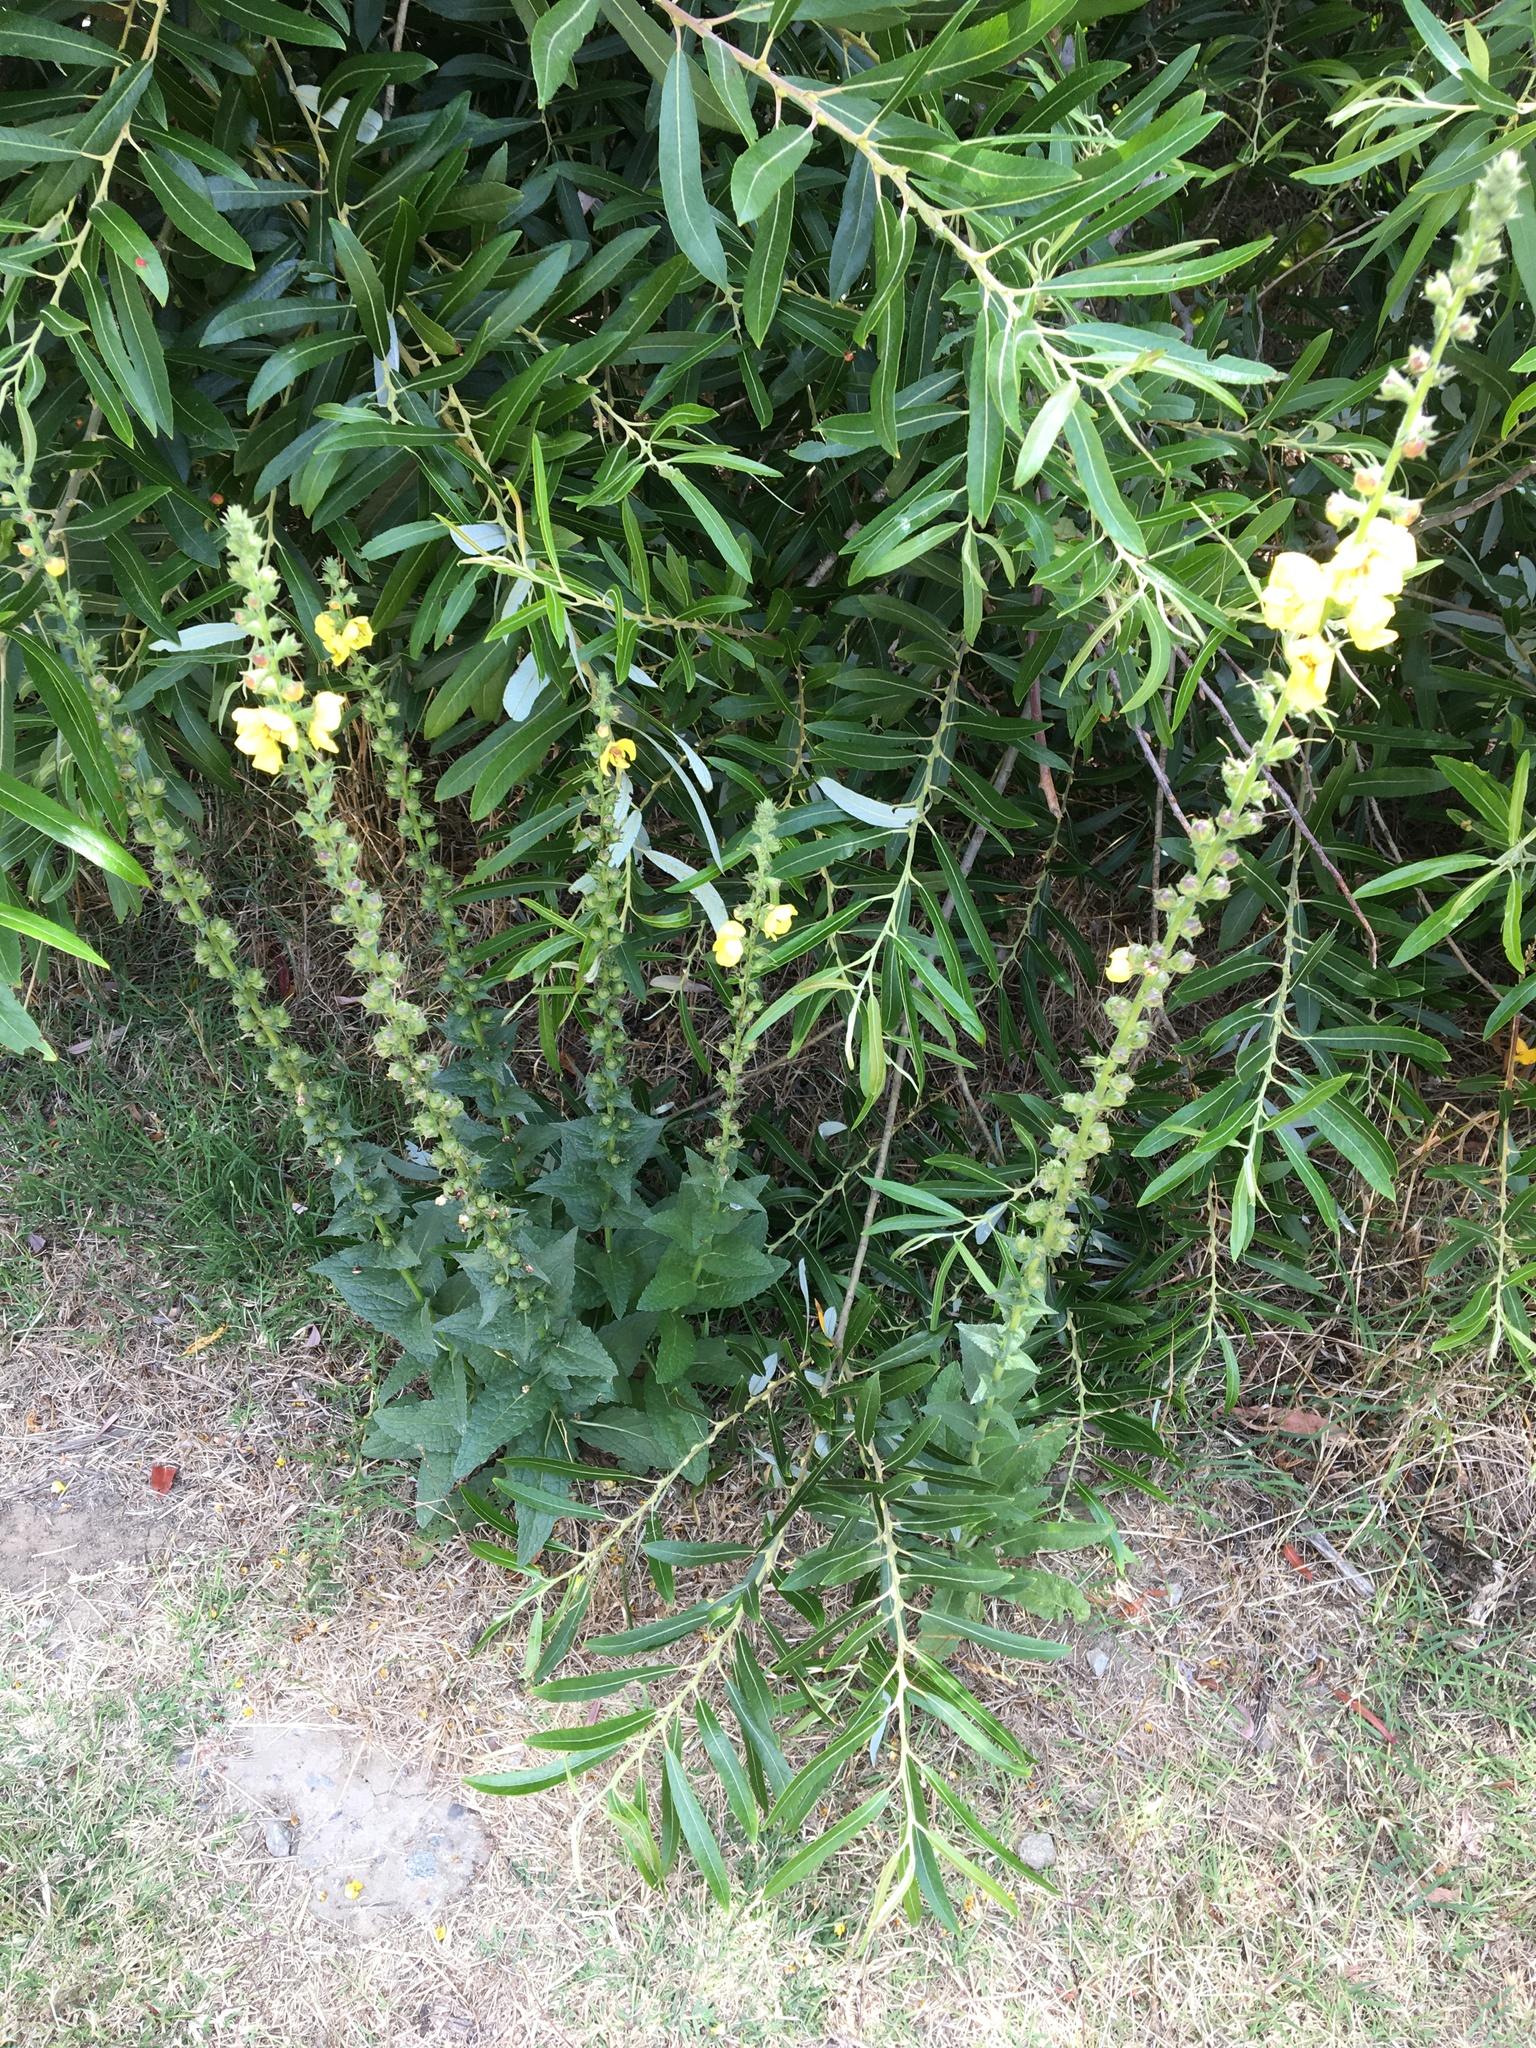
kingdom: Plantae
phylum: Tracheophyta
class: Magnoliopsida
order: Lamiales
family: Scrophulariaceae
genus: Verbascum
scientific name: Verbascum virgatum
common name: Twiggy mullein
